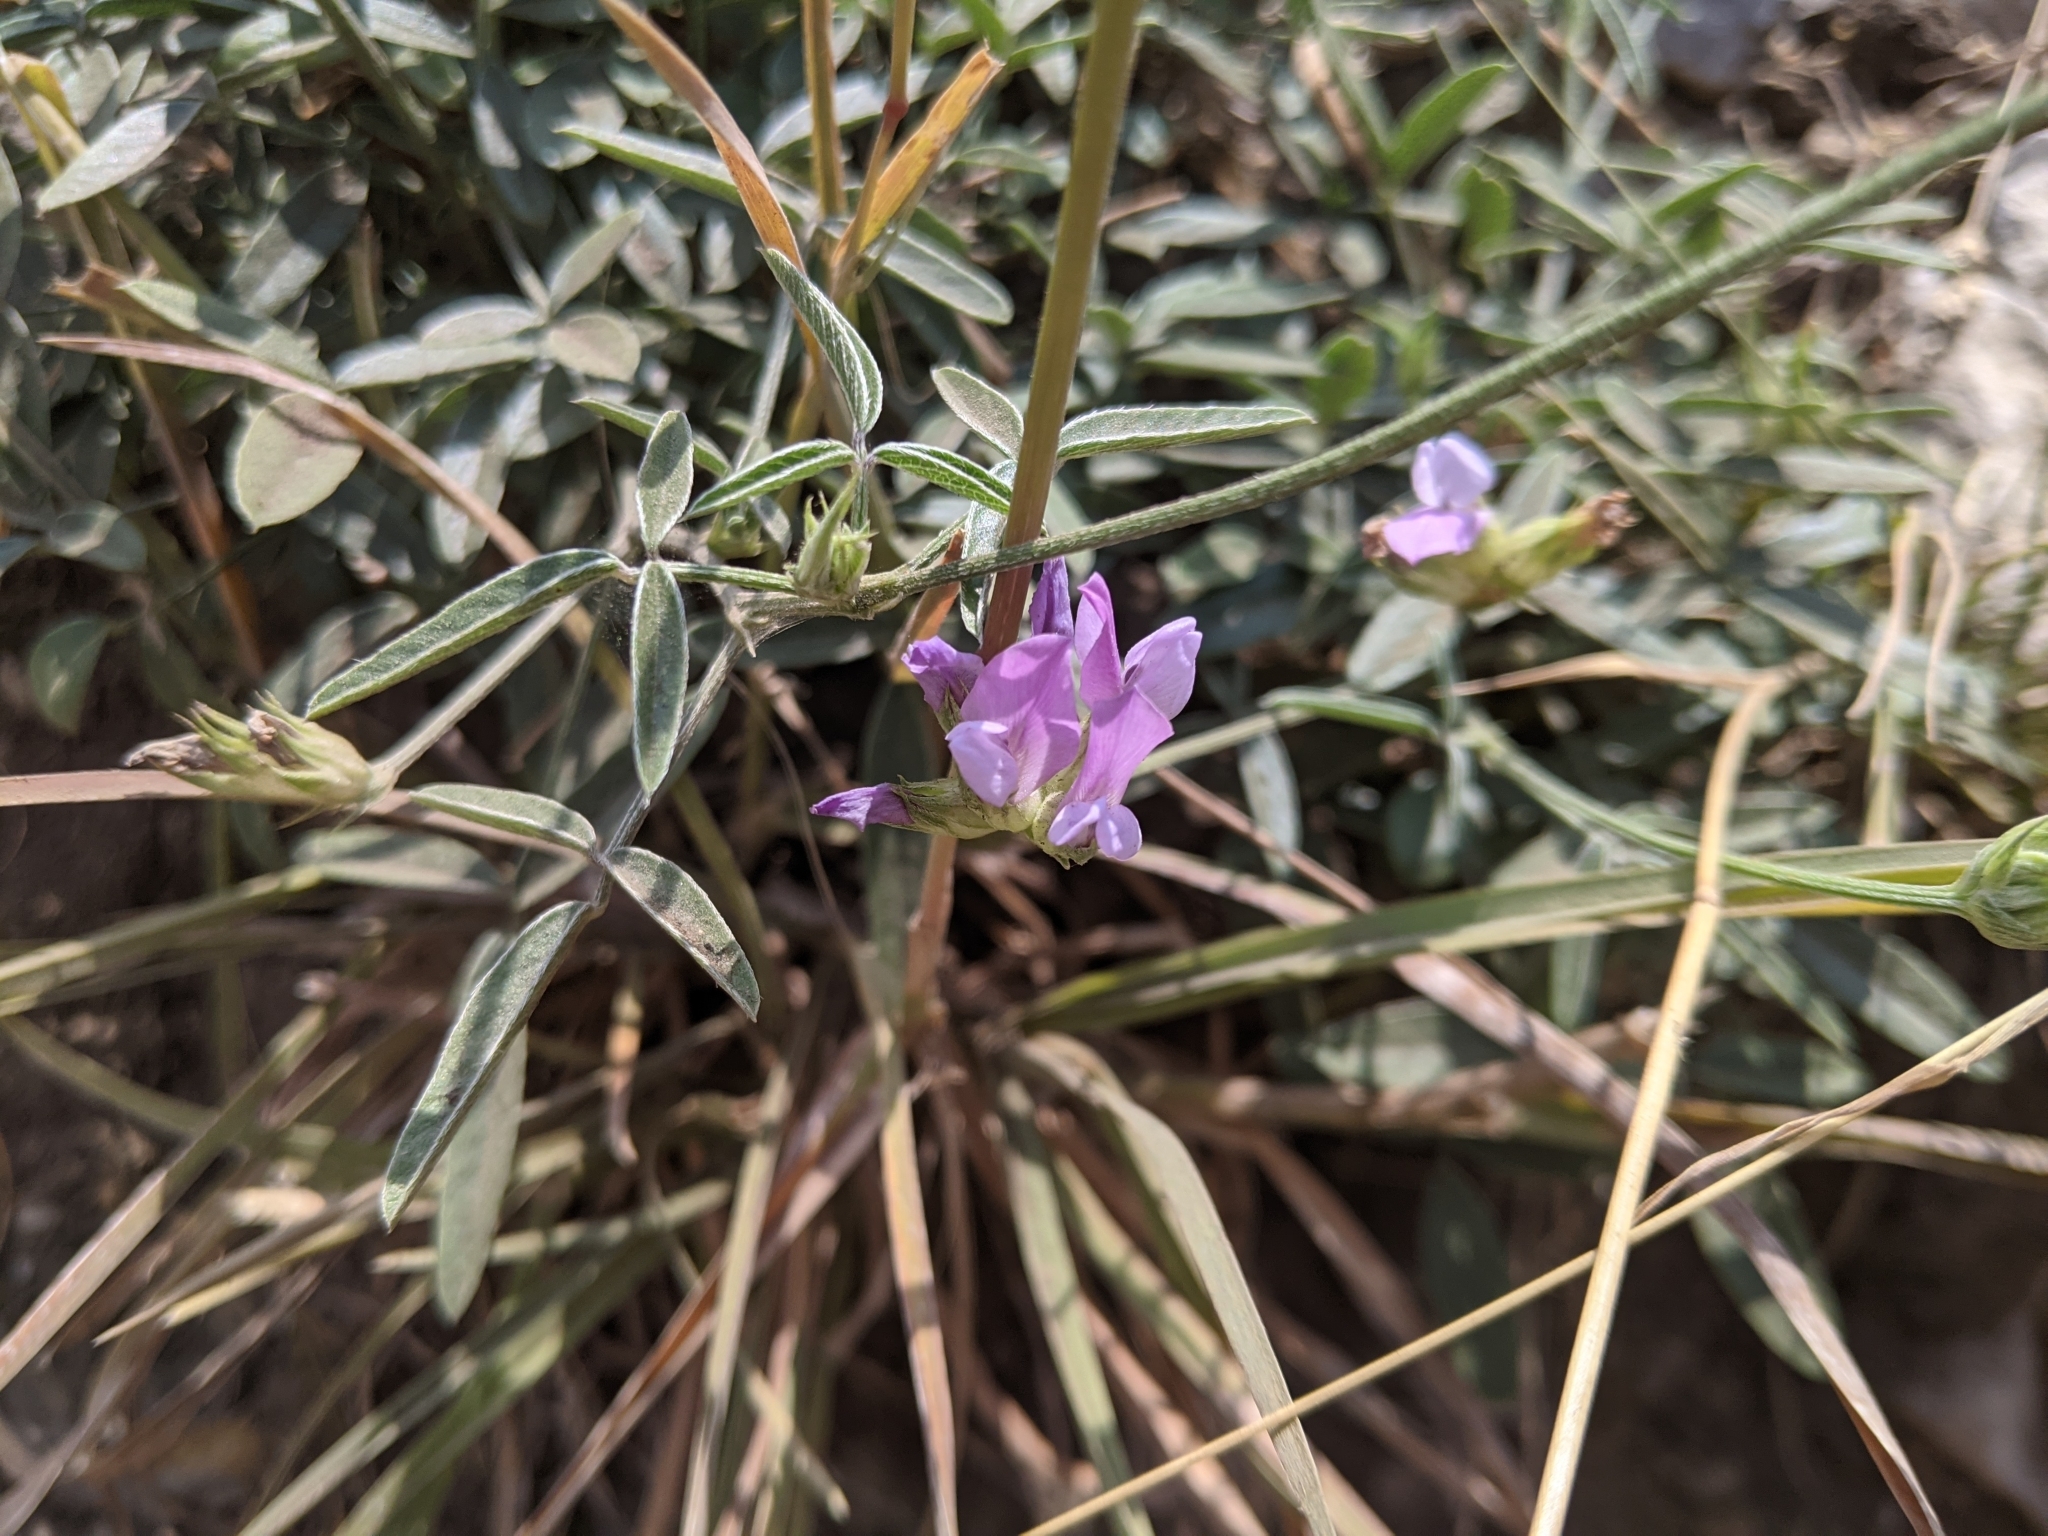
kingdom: Plantae
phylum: Tracheophyta
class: Magnoliopsida
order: Fabales
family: Fabaceae
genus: Bituminaria
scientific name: Bituminaria bituminosa
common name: Arabian pea
